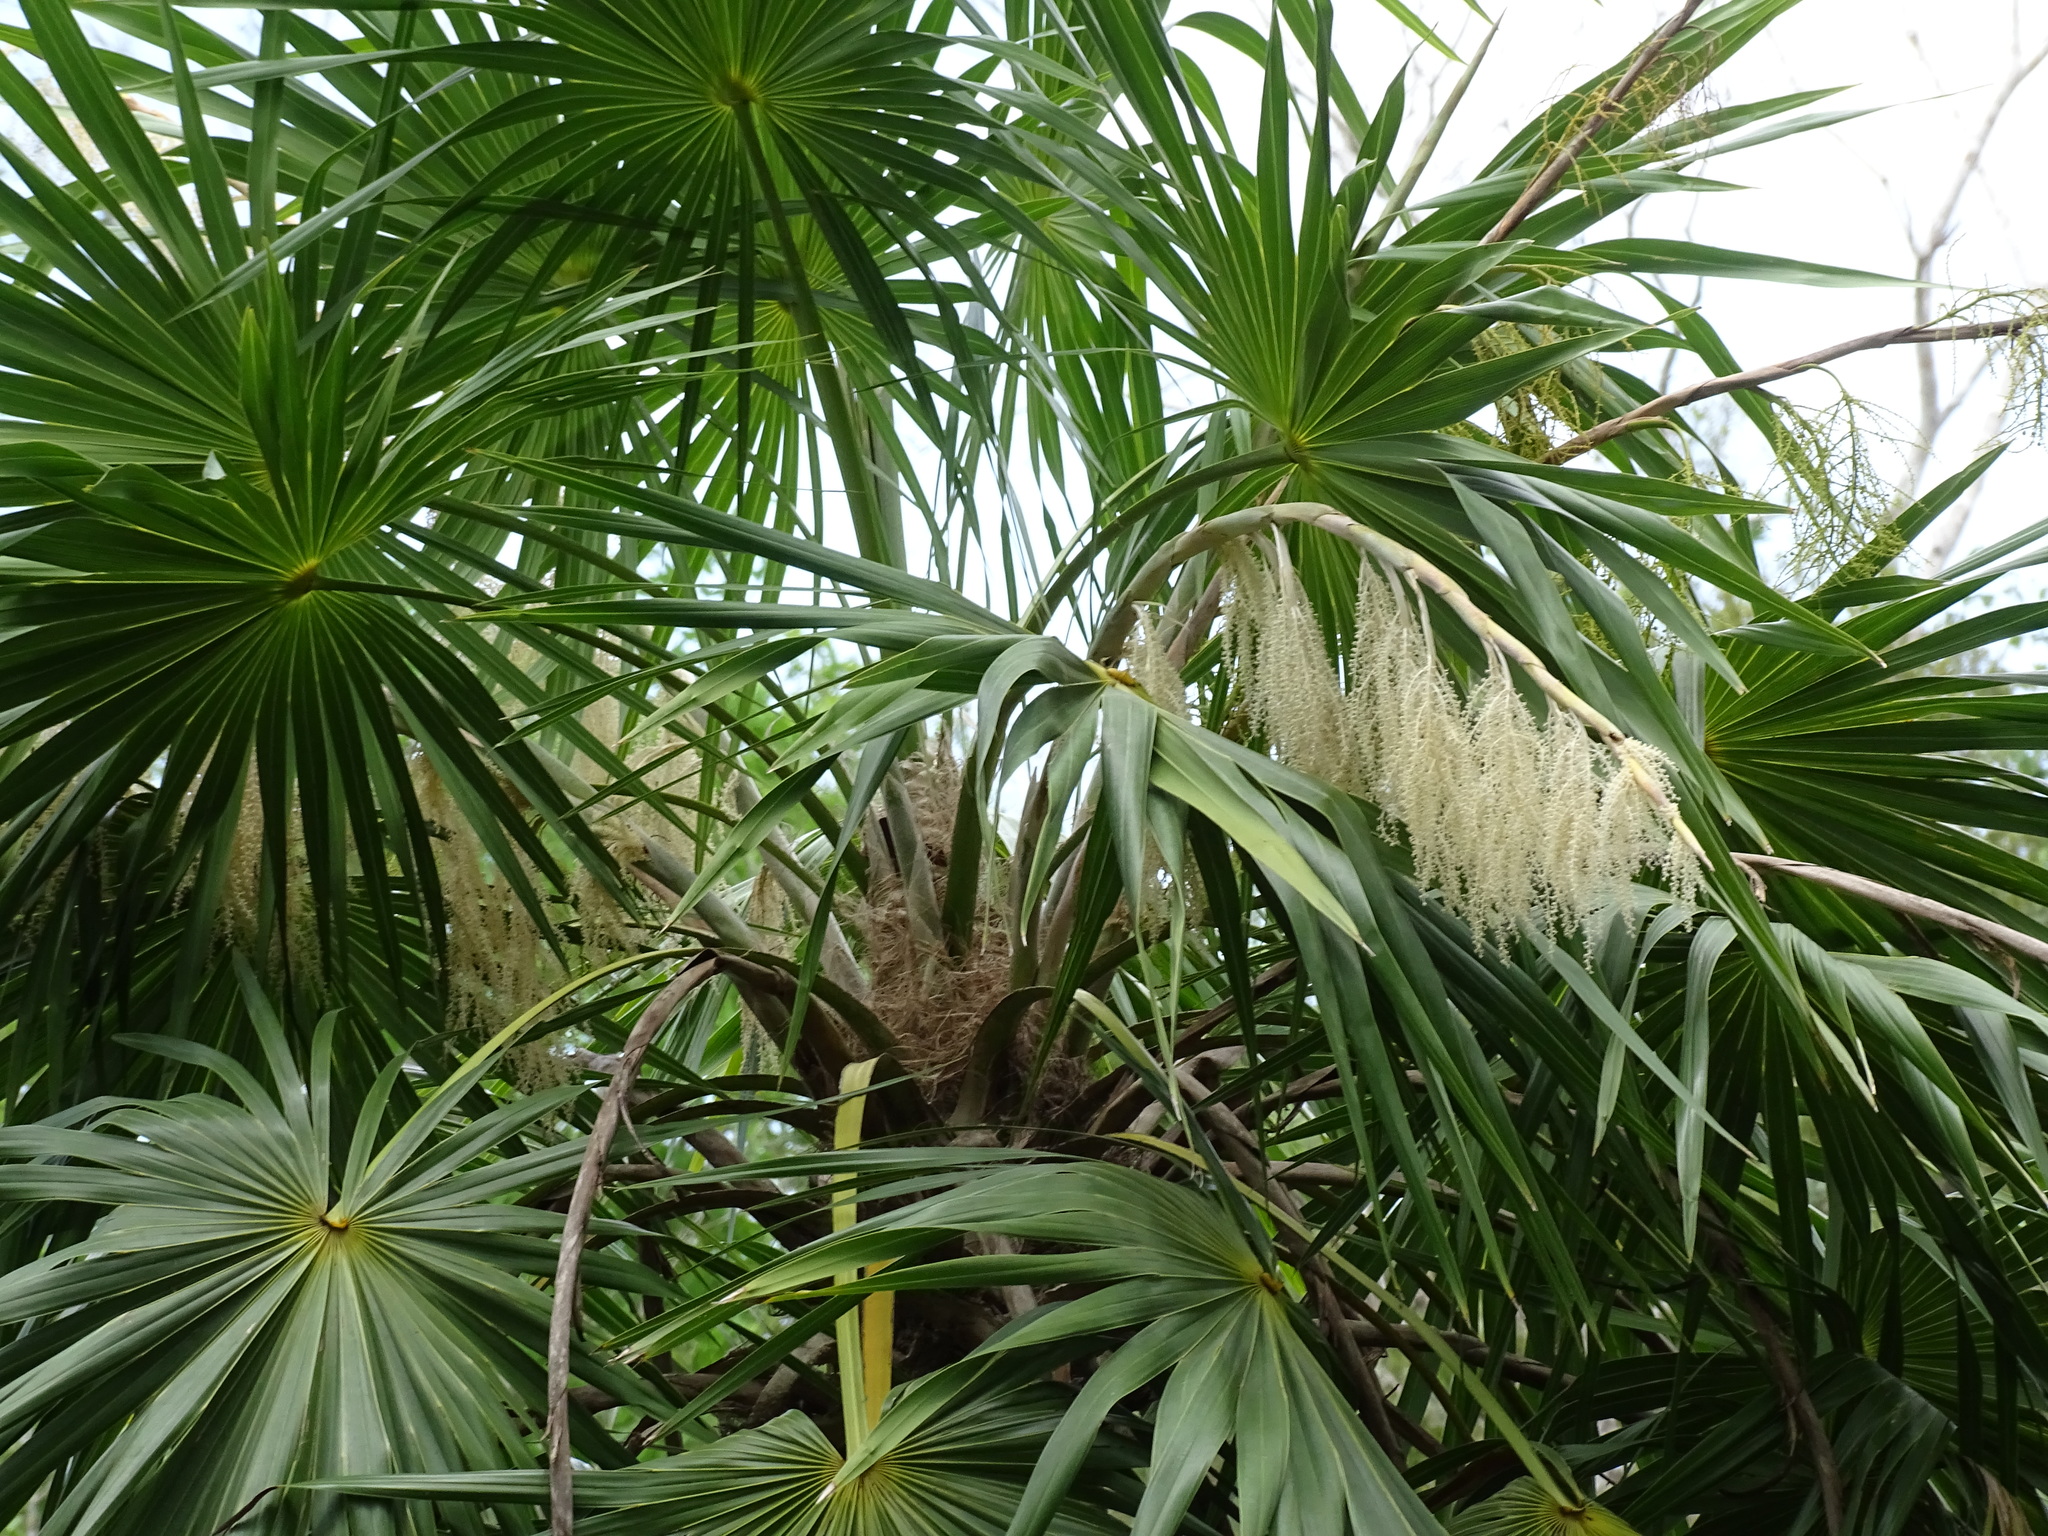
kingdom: Plantae
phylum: Tracheophyta
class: Liliopsida
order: Arecales
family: Arecaceae
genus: Thrinax
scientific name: Thrinax radiata
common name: Florida thatch
